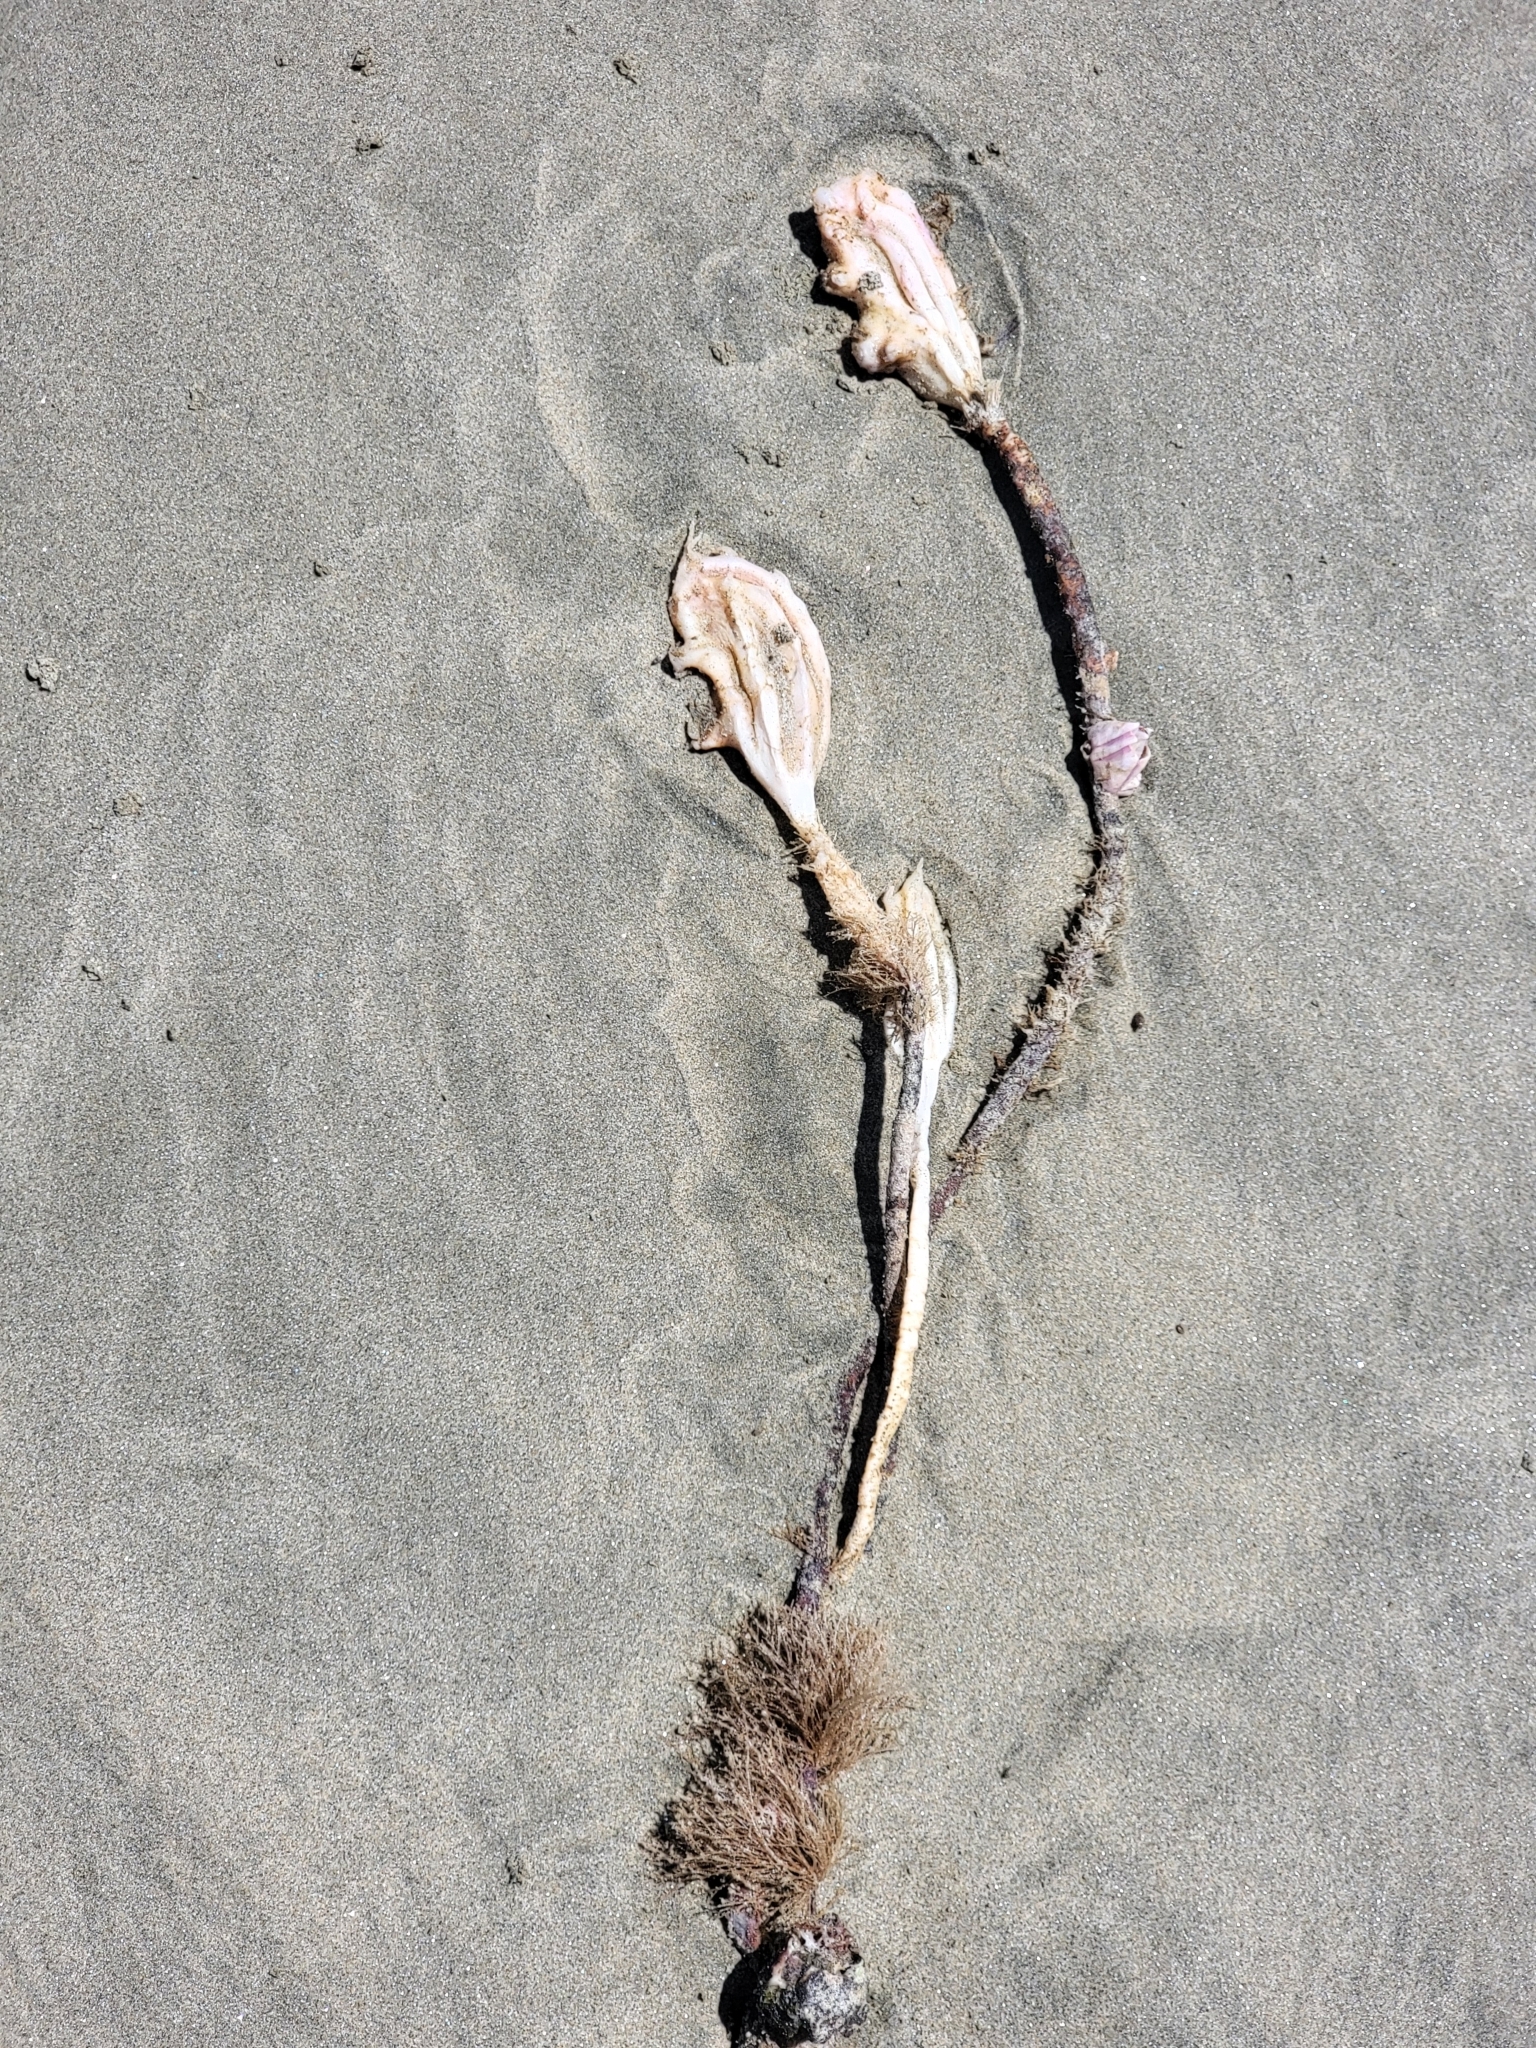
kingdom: Animalia
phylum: Chordata
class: Ascidiacea
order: Stolidobranchia
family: Pyuridae
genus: Pyura
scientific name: Pyura pachydermatina
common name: Sea tulip
